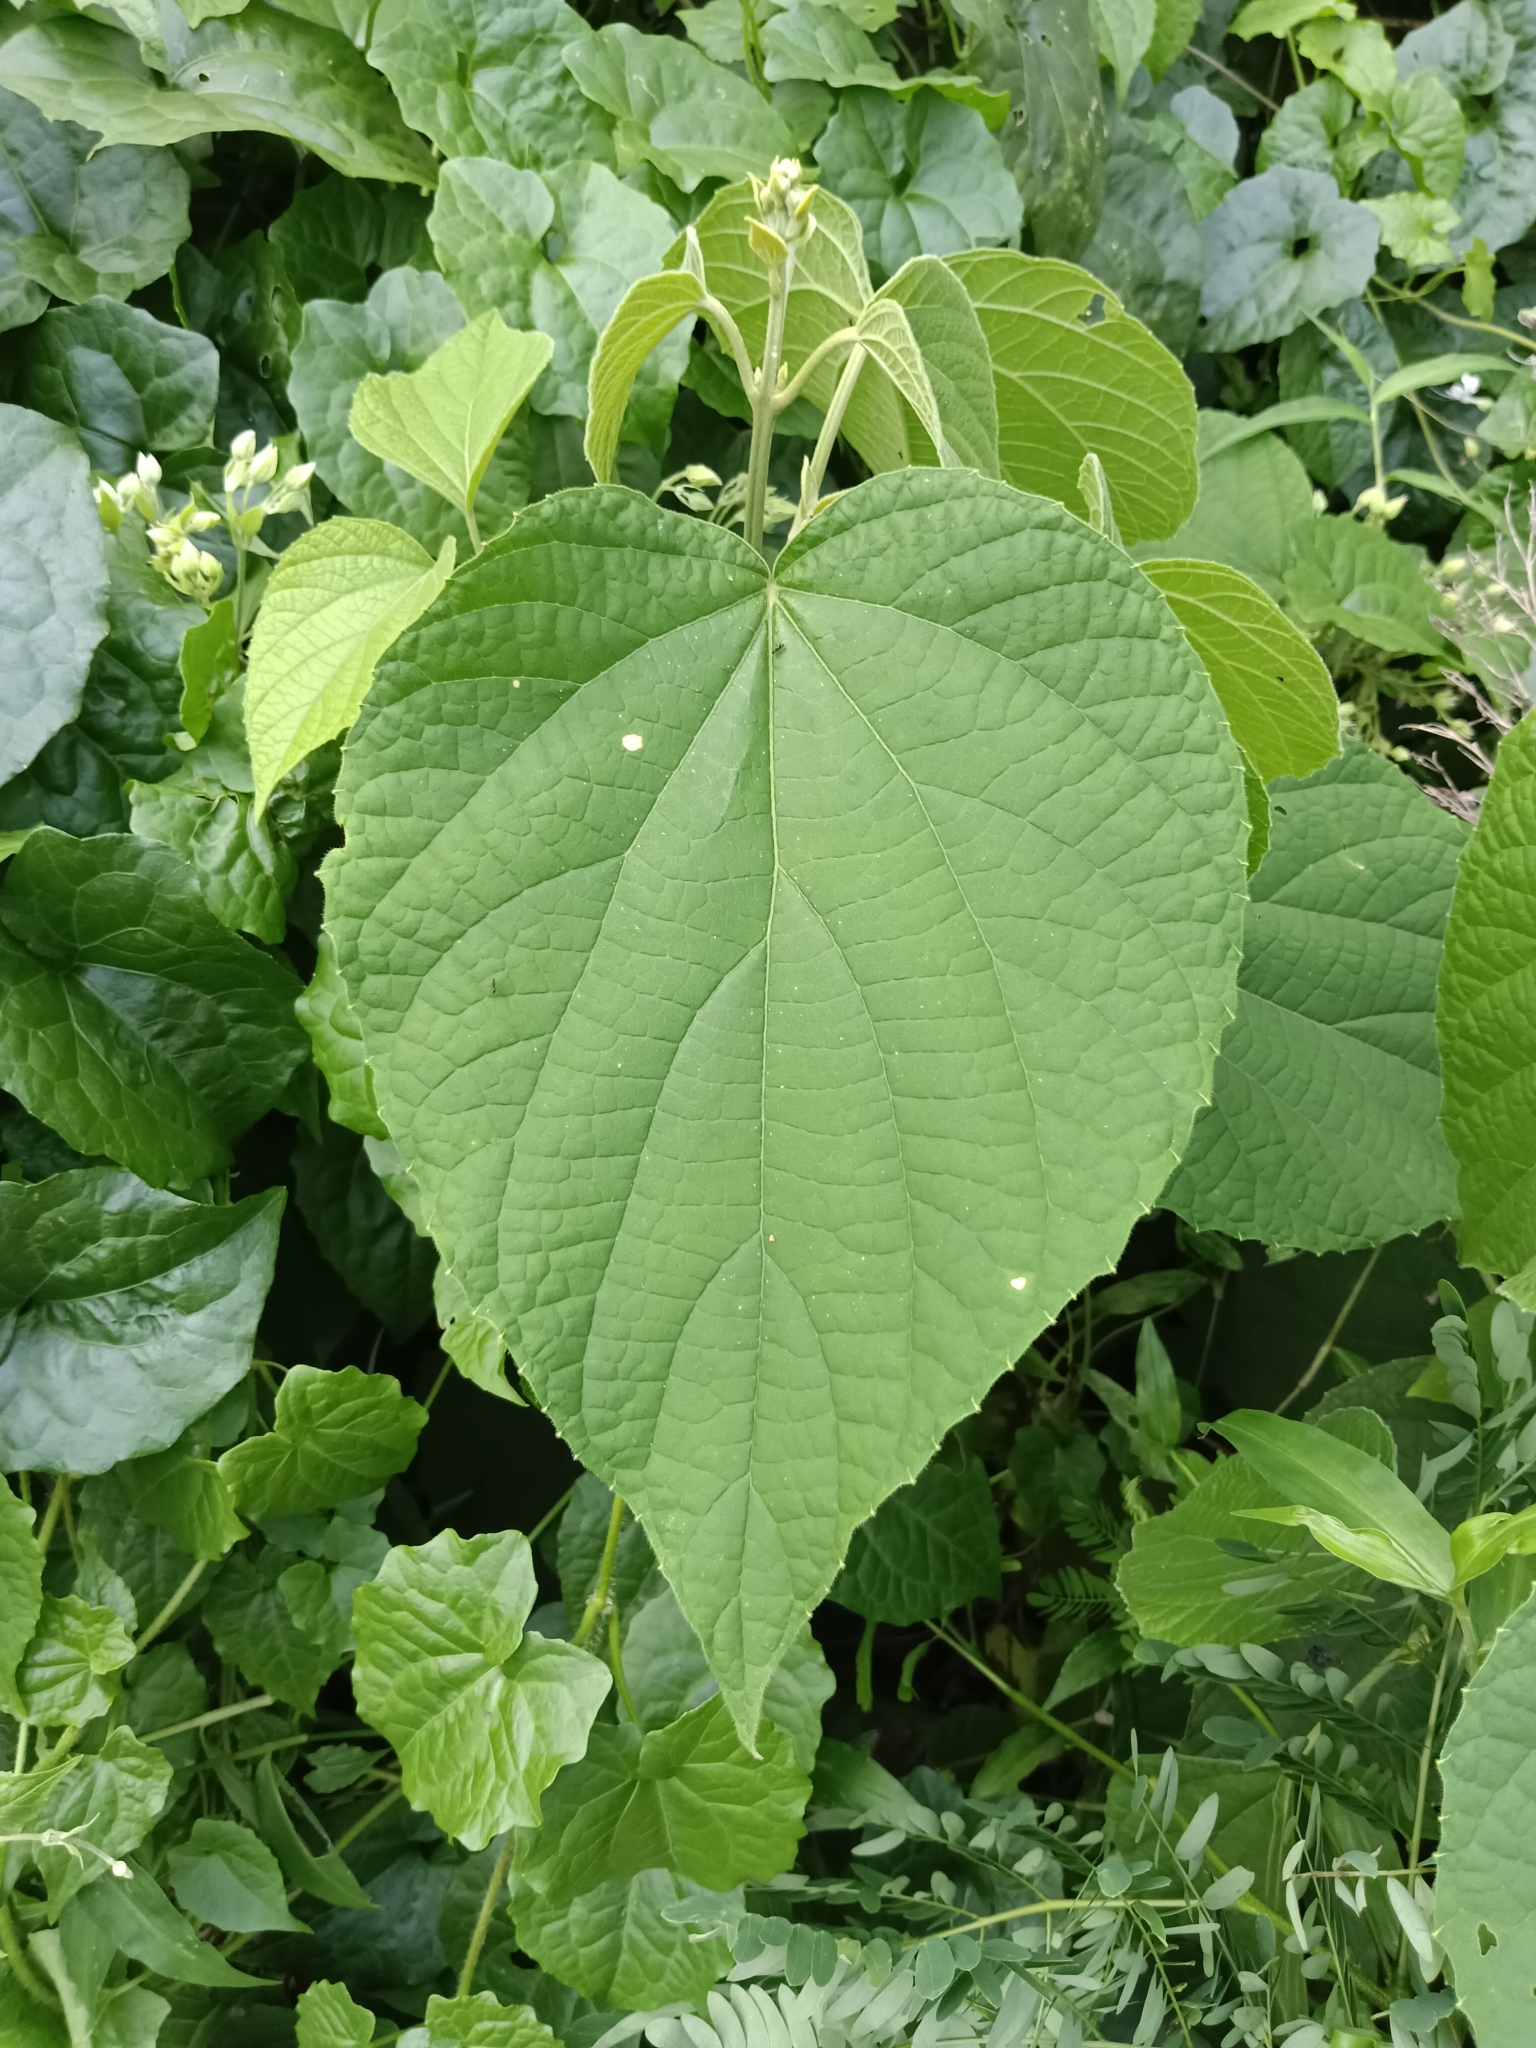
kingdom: Plantae
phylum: Tracheophyta
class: Magnoliopsida
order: Lamiales
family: Lamiaceae
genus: Clerodendrum
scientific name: Clerodendrum infortunatum
